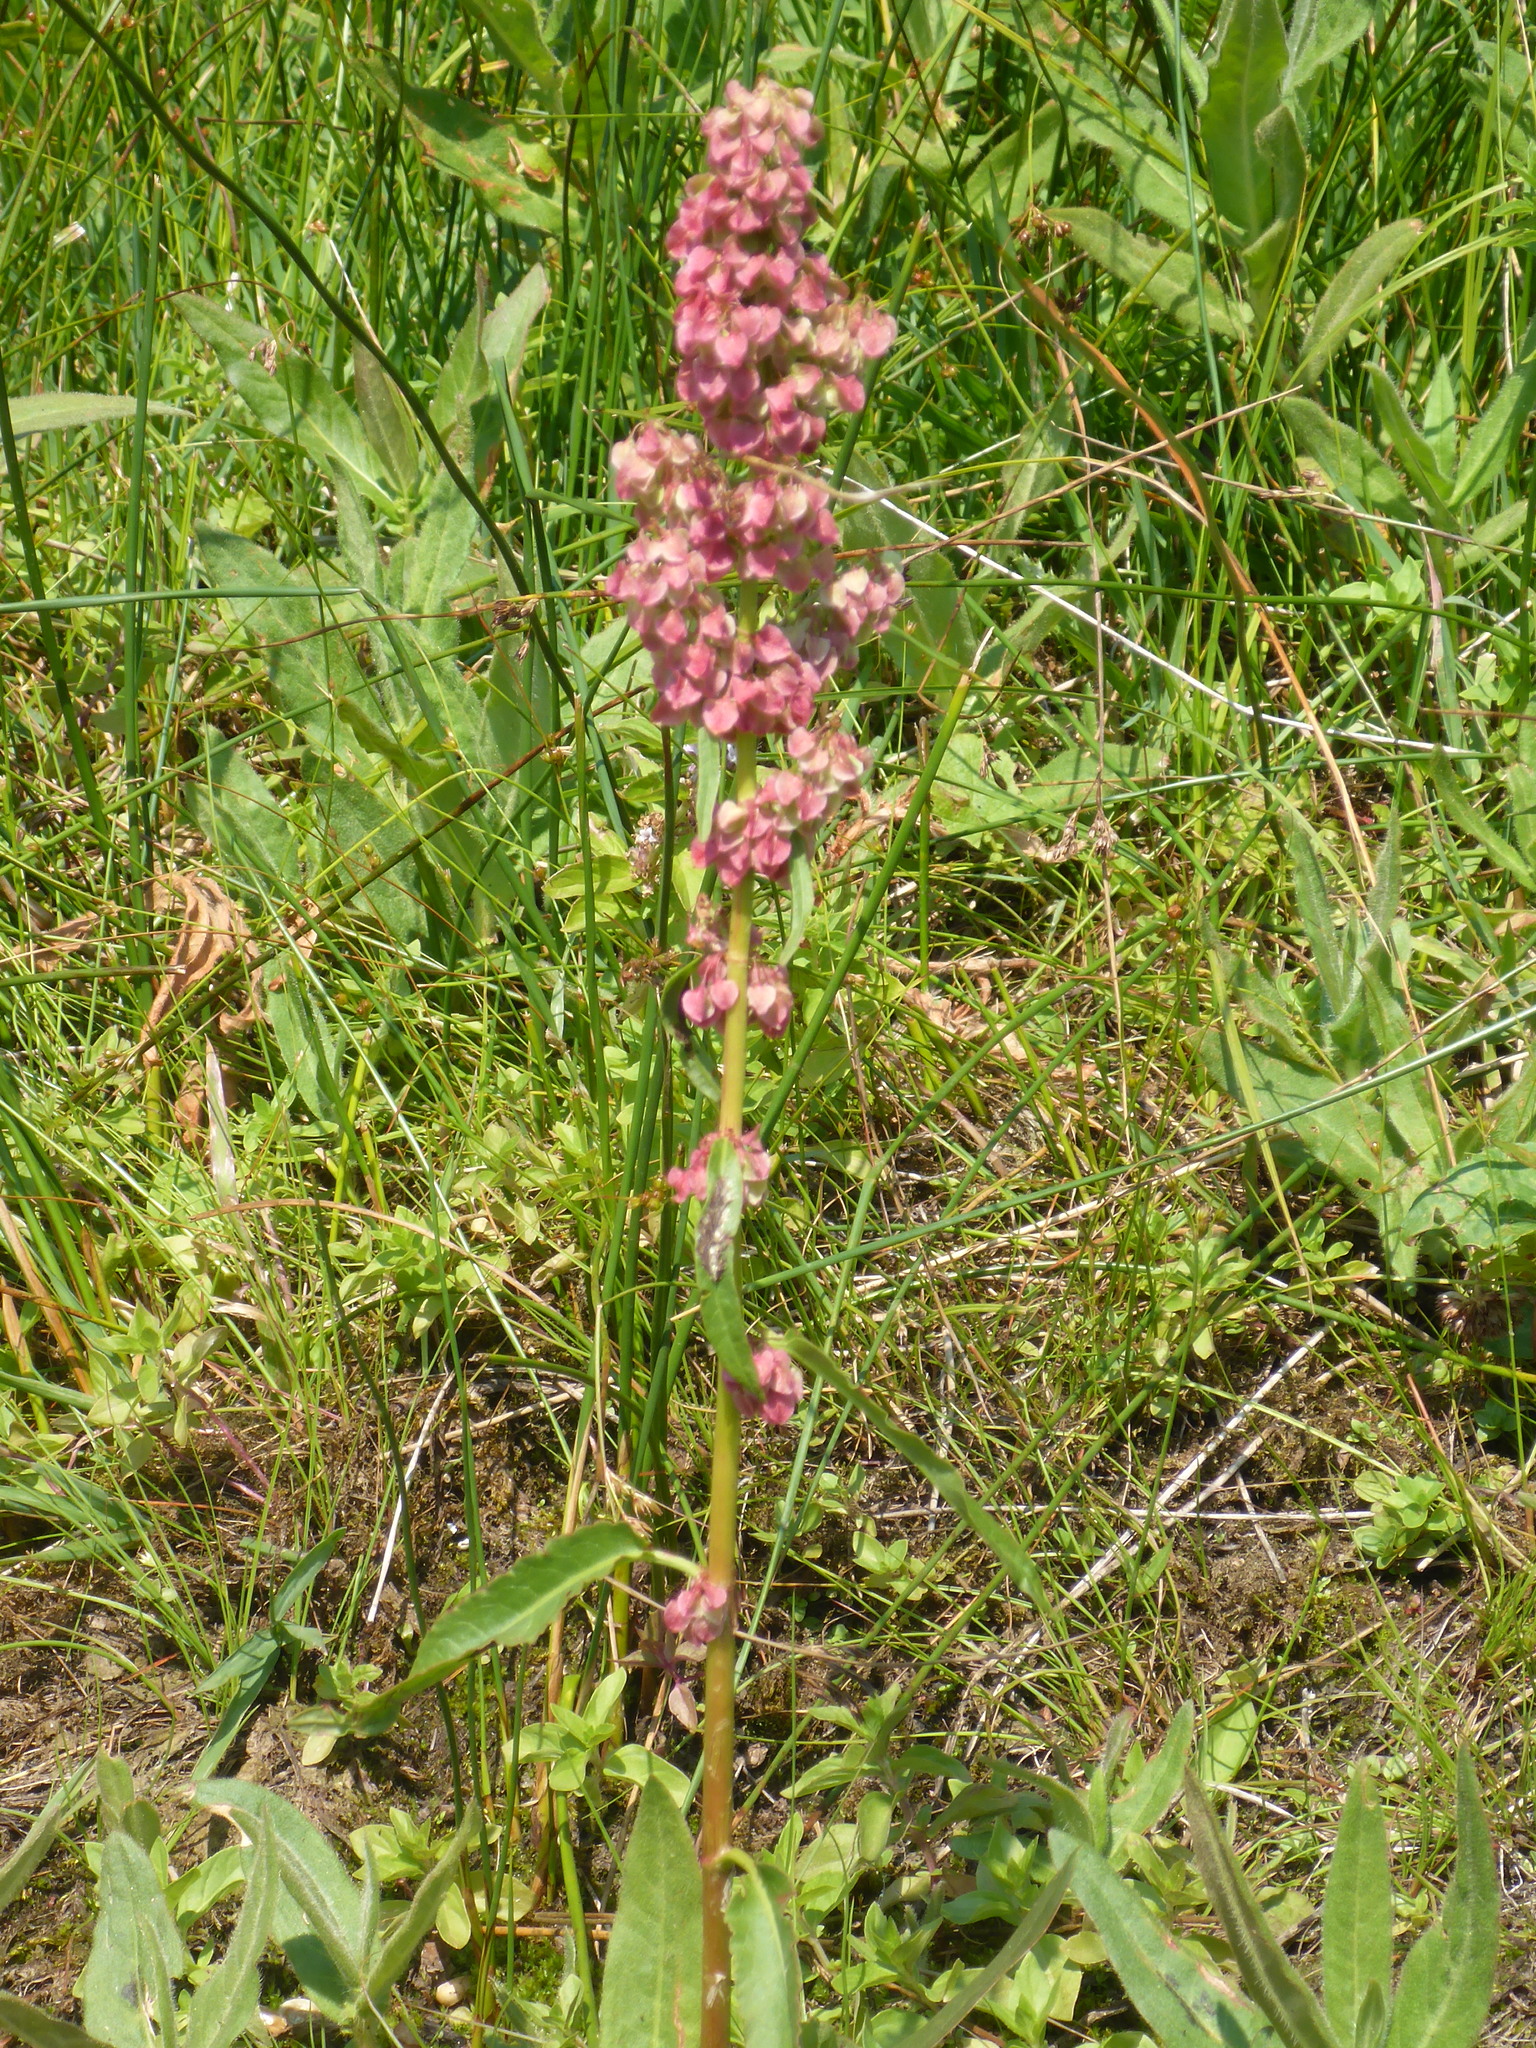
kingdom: Plantae
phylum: Tracheophyta
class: Magnoliopsida
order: Caryophyllales
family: Polygonaceae
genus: Rumex
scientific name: Rumex occidentalis
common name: Western dock
